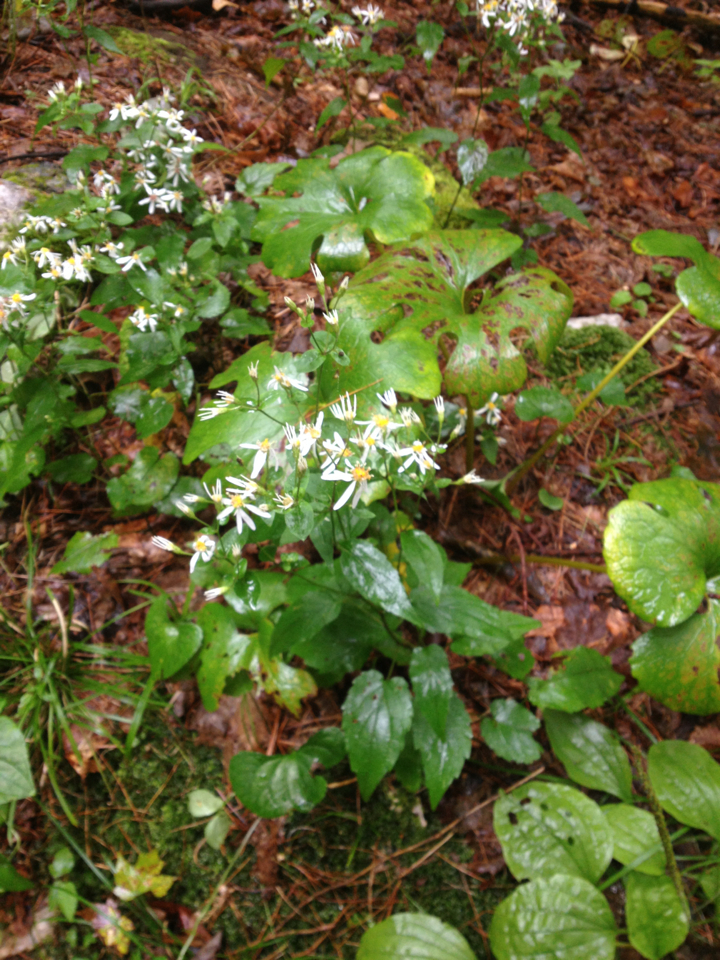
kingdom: Plantae
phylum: Tracheophyta
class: Magnoliopsida
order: Asterales
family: Asteraceae
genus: Eurybia
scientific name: Eurybia divaricata
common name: White wood aster
